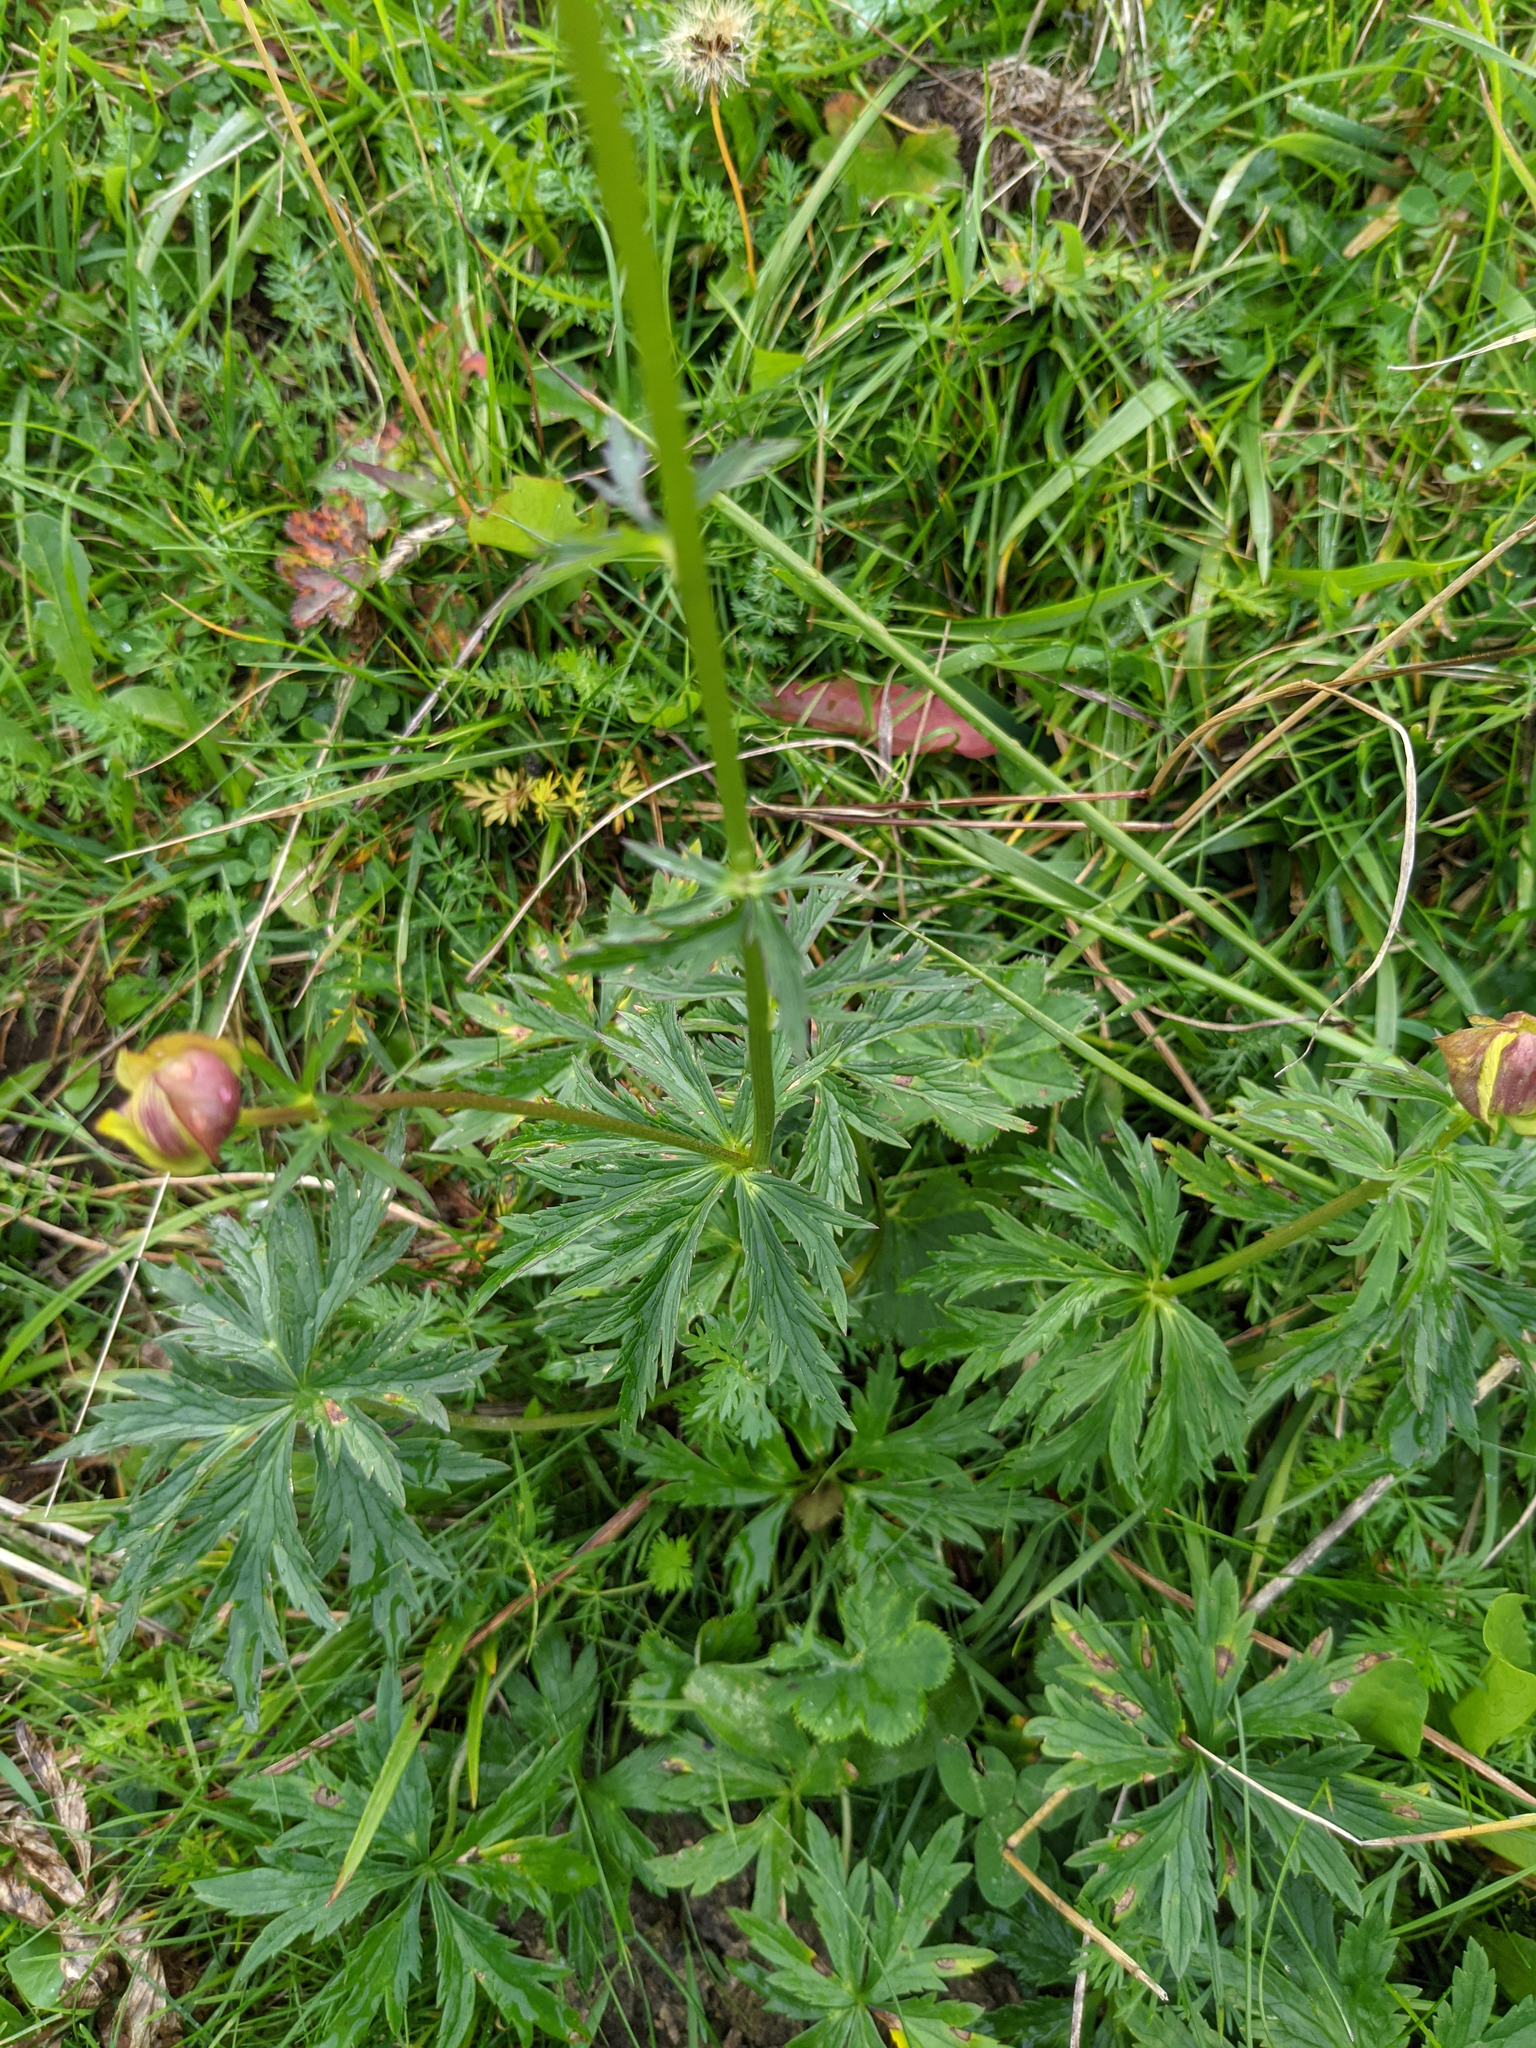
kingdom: Plantae
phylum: Tracheophyta
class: Magnoliopsida
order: Ranunculales
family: Ranunculaceae
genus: Trollius
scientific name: Trollius europaeus
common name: European globeflower
